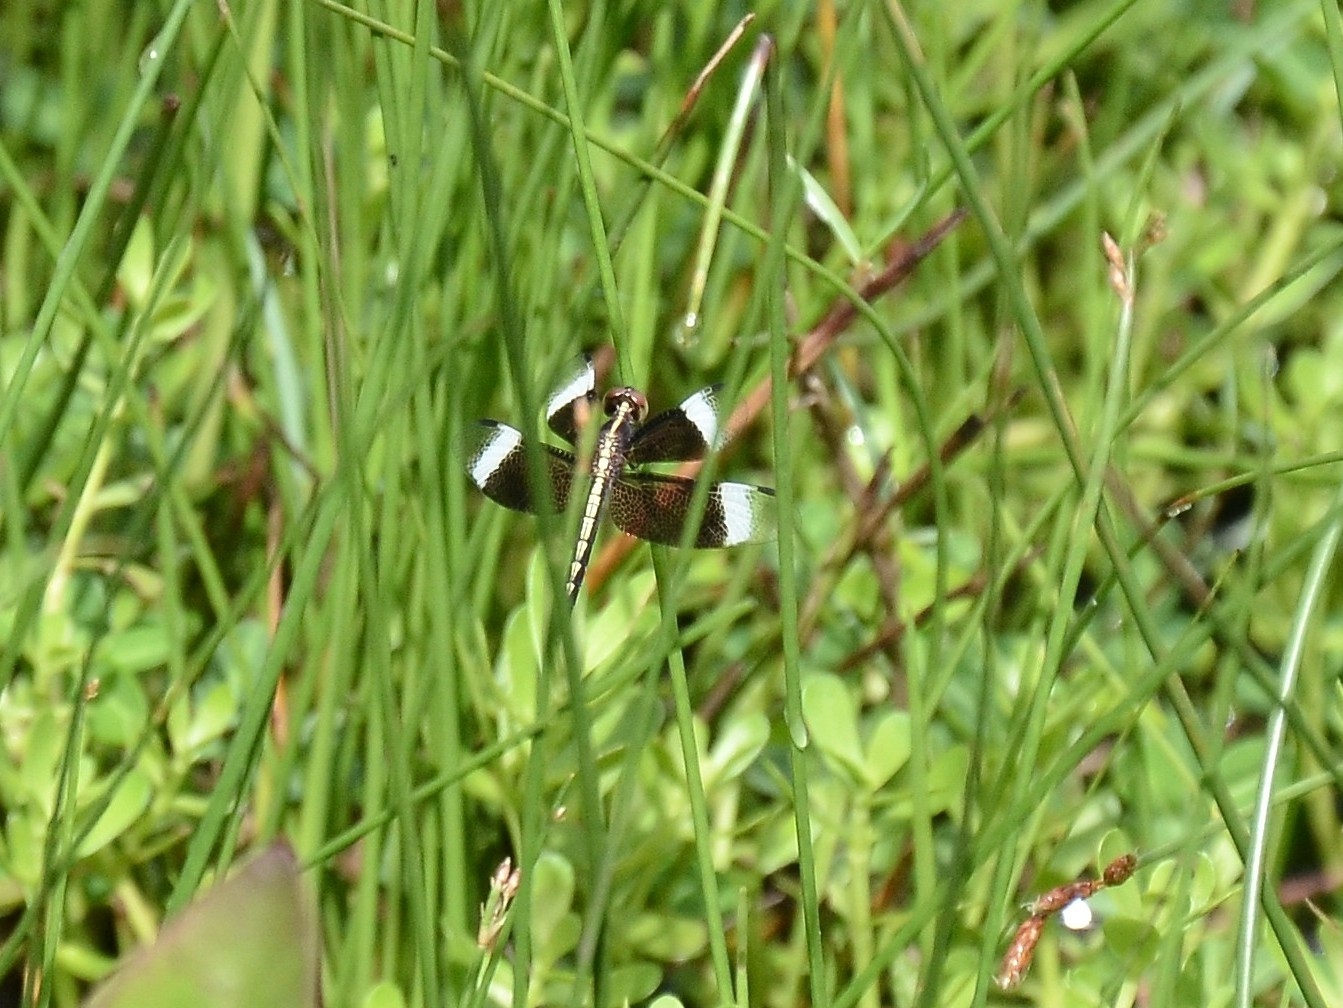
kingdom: Animalia
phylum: Arthropoda
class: Insecta
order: Odonata
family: Libellulidae
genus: Neurothemis
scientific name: Neurothemis tullia
